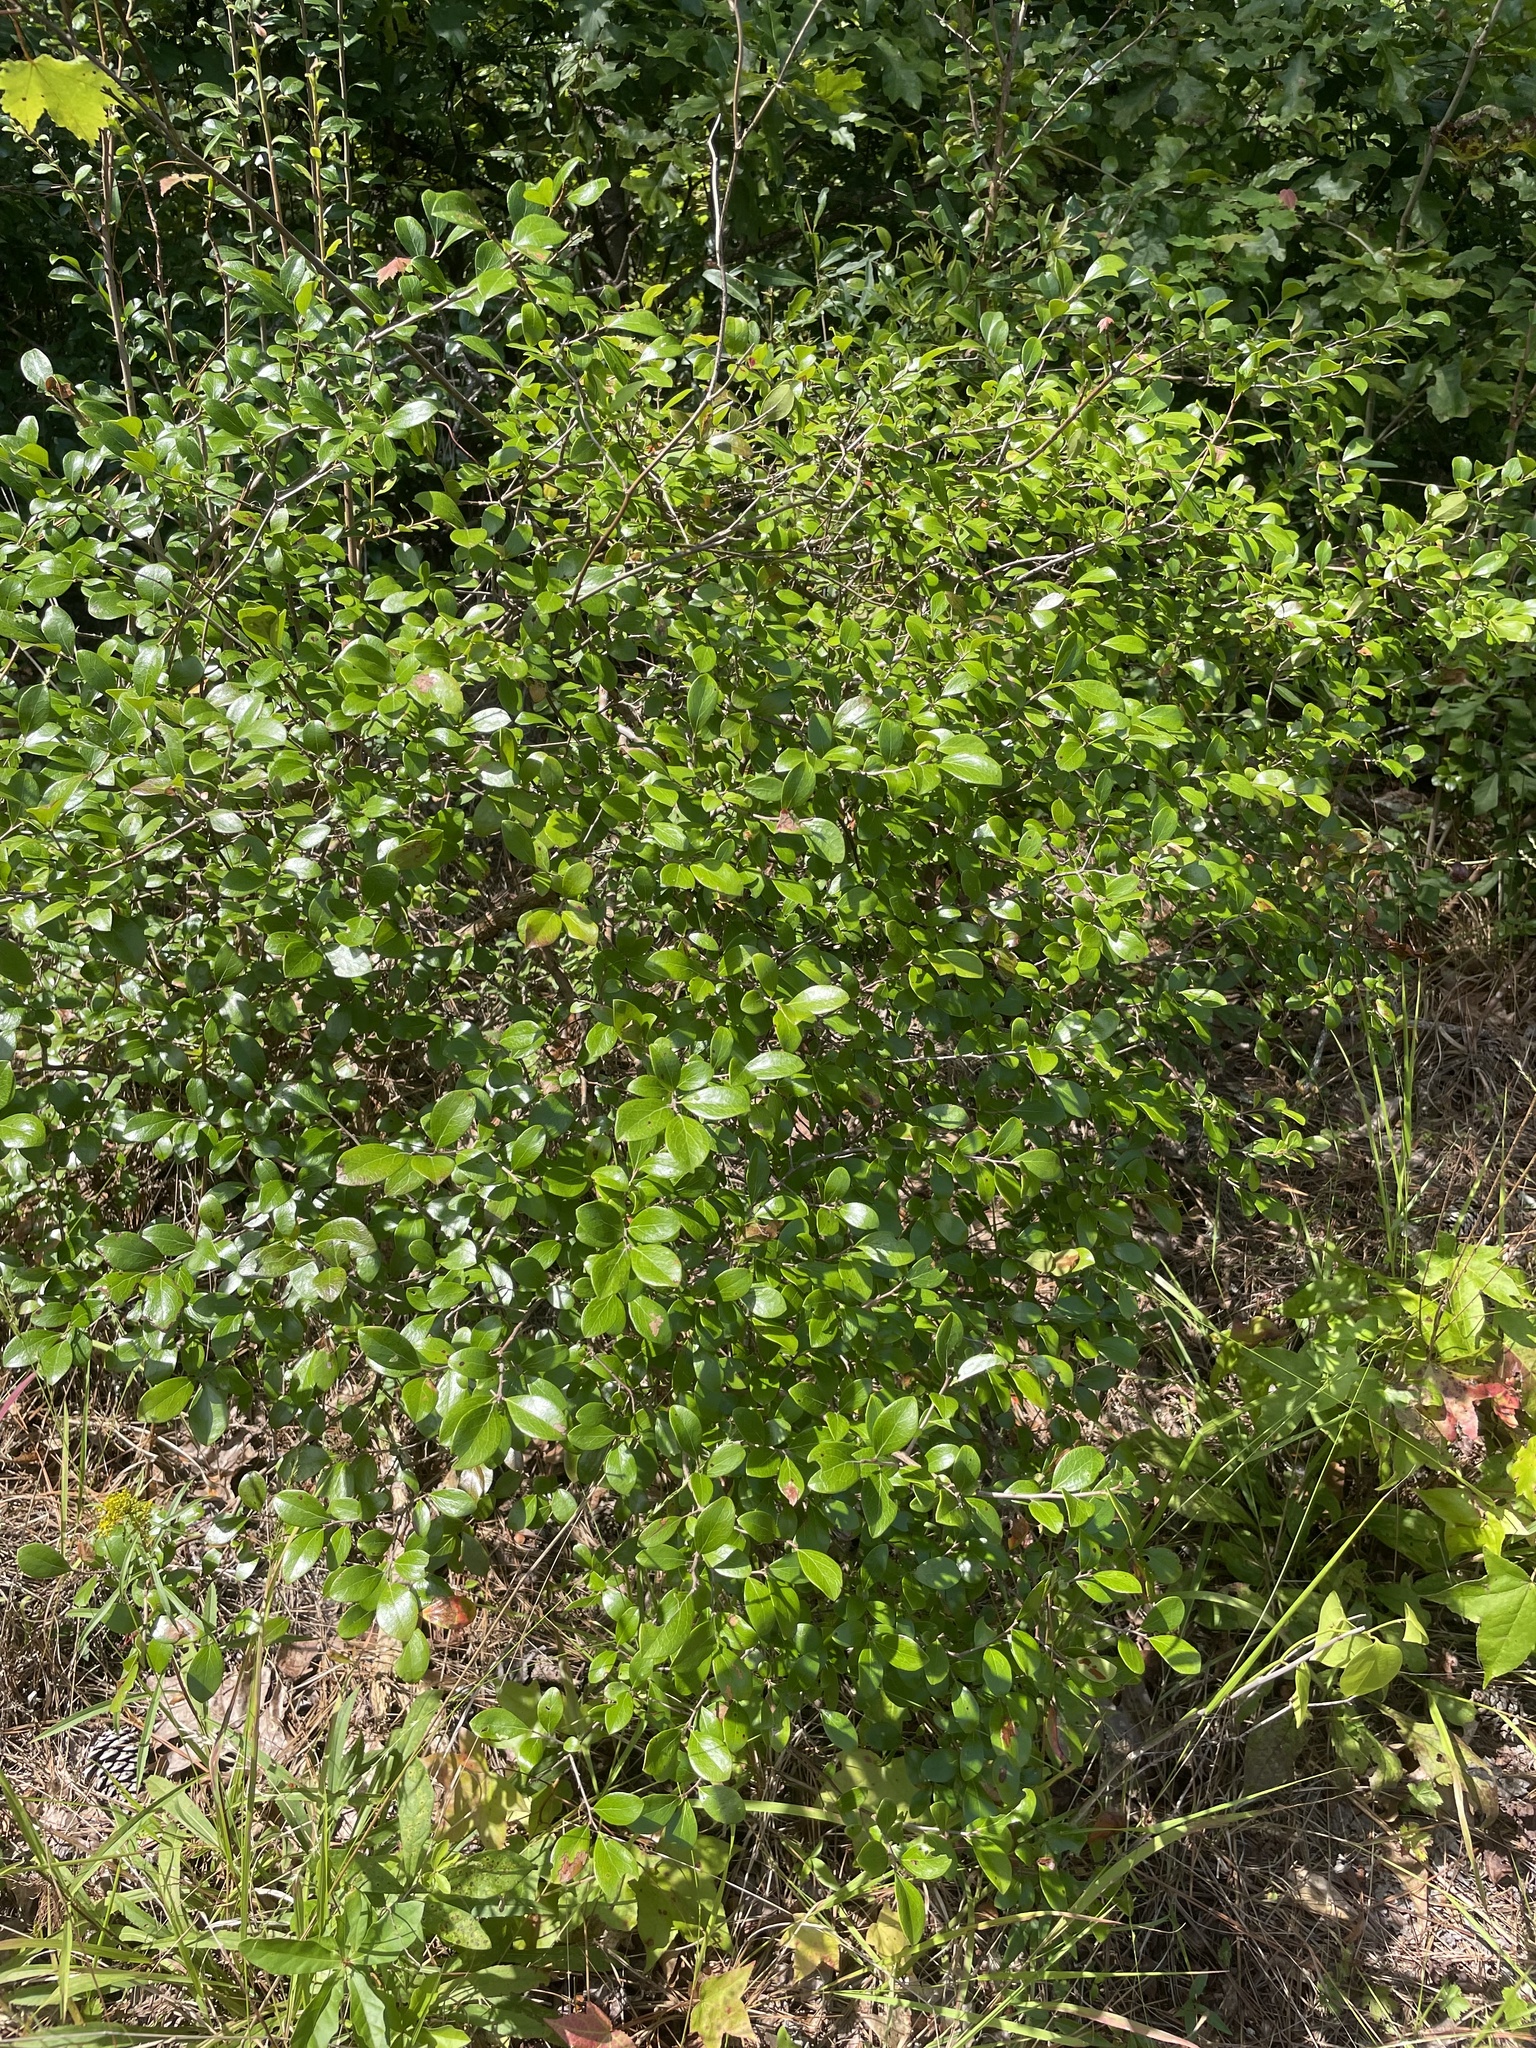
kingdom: Plantae
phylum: Tracheophyta
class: Magnoliopsida
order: Ericales
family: Ericaceae
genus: Vaccinium
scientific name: Vaccinium arboreum
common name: Farkleberry
